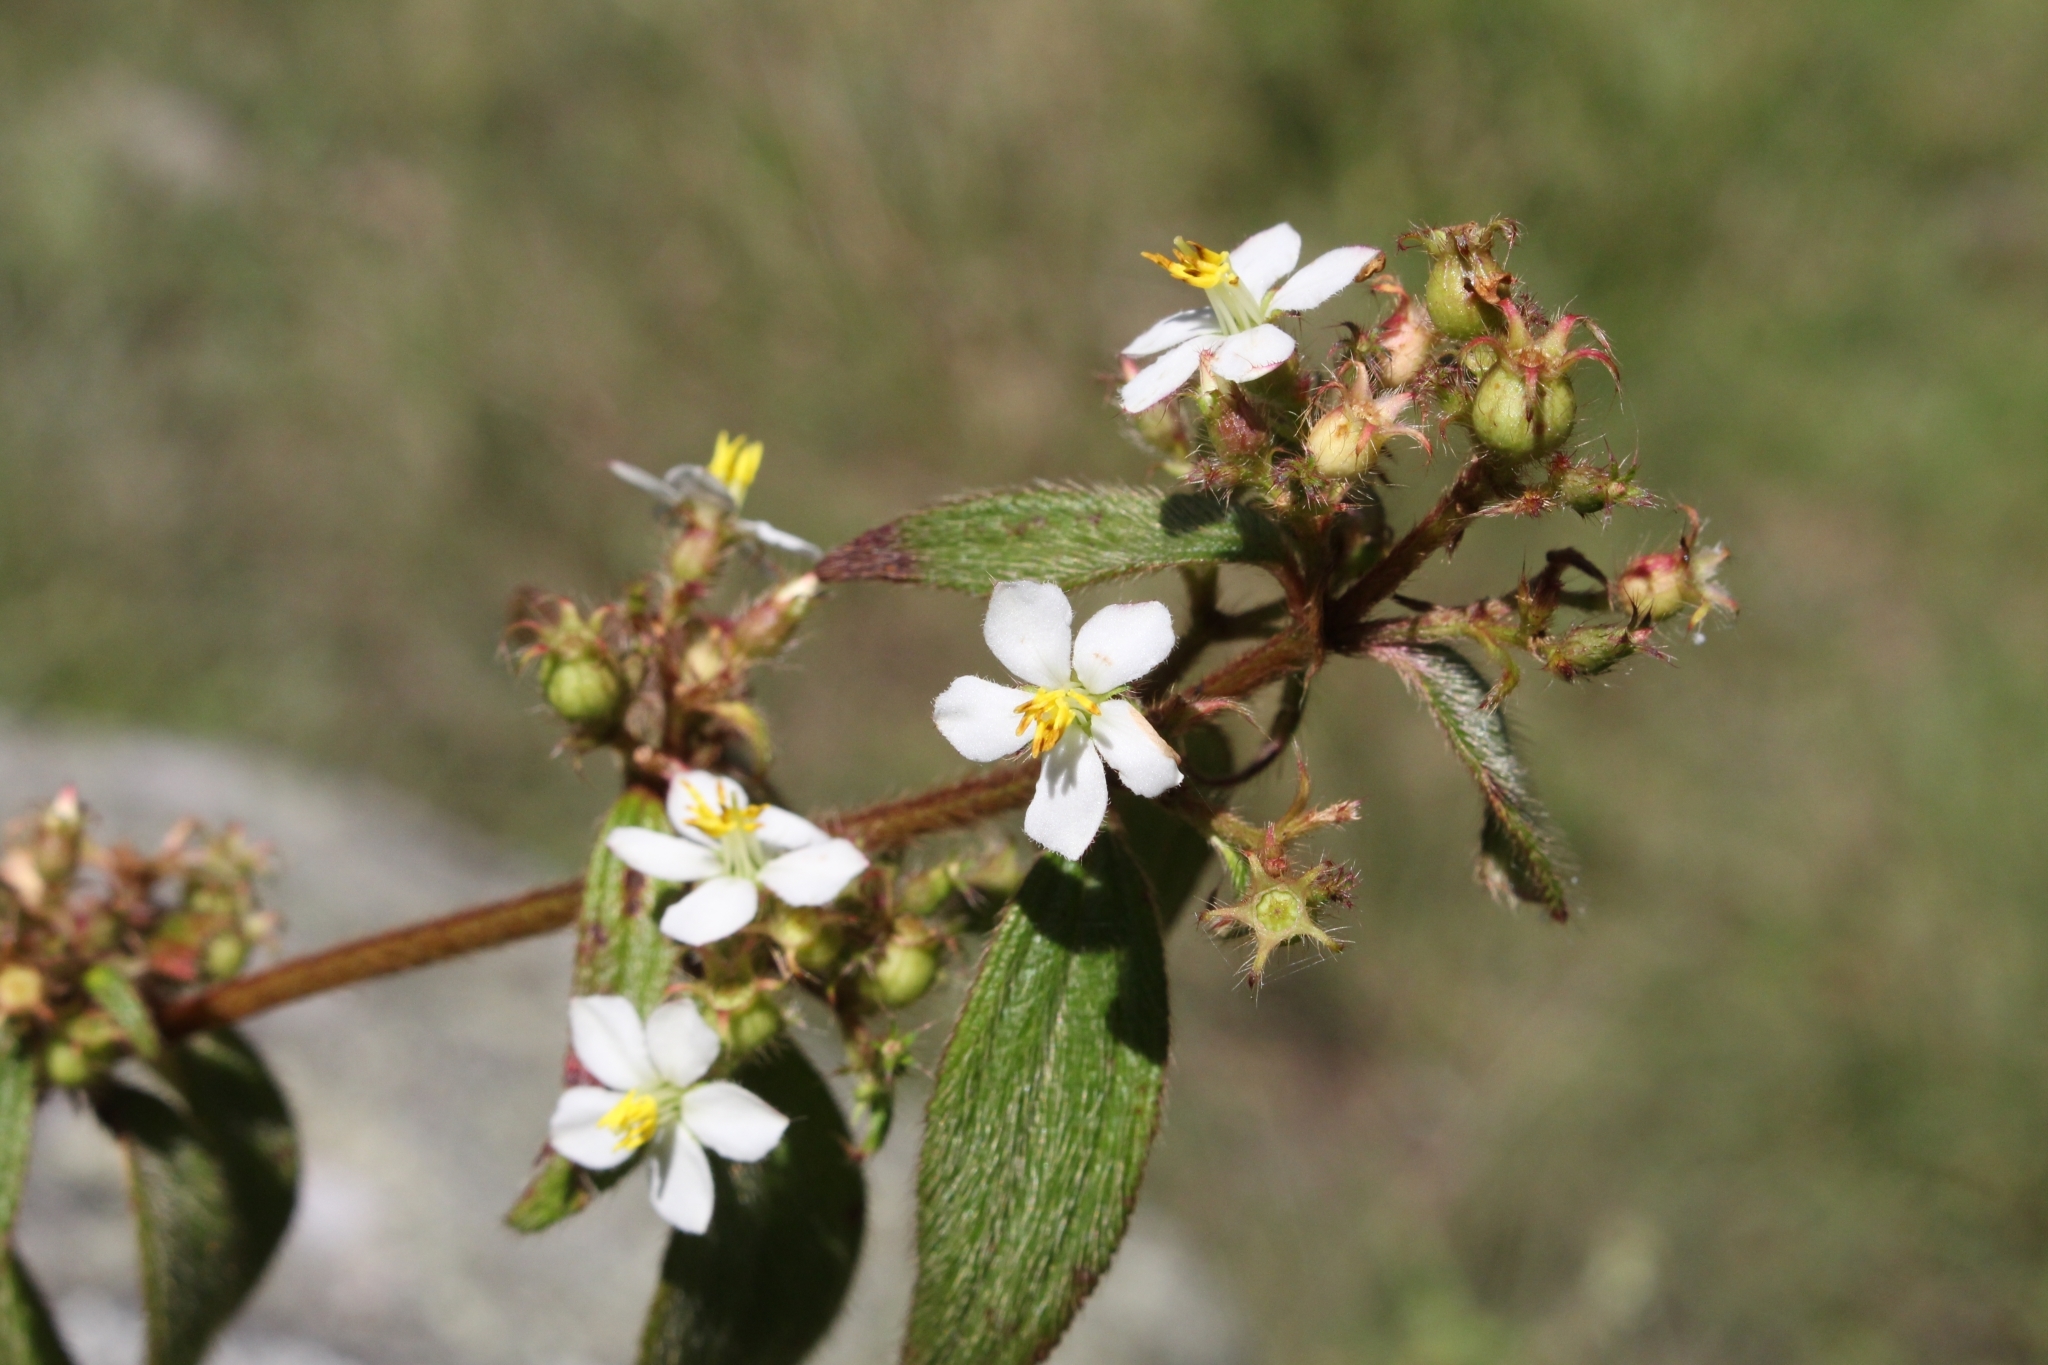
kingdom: Plantae
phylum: Tracheophyta
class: Magnoliopsida
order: Myrtales
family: Melastomataceae
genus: Chaetogastra
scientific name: Chaetogastra longifolia
